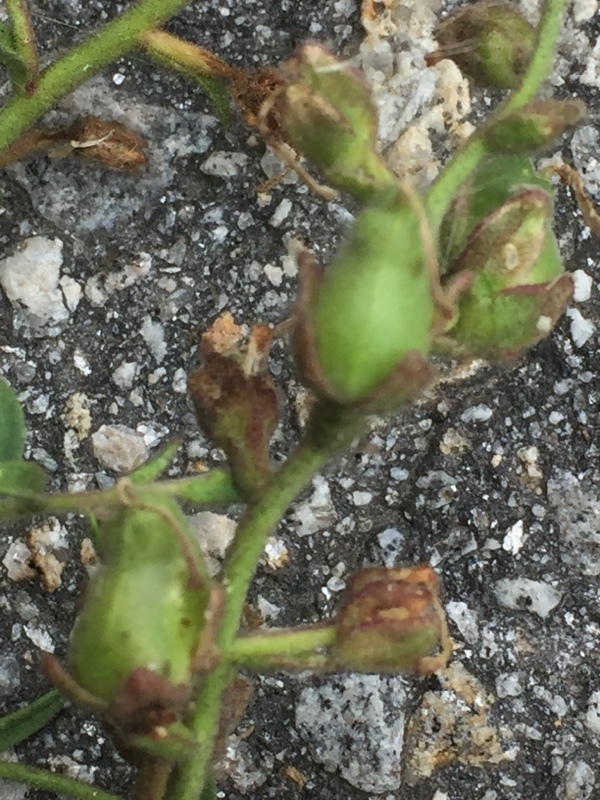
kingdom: Plantae
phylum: Tracheophyta
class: Magnoliopsida
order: Lamiales
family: Plantaginaceae
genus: Antirrhinum
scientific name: Antirrhinum graniticum
